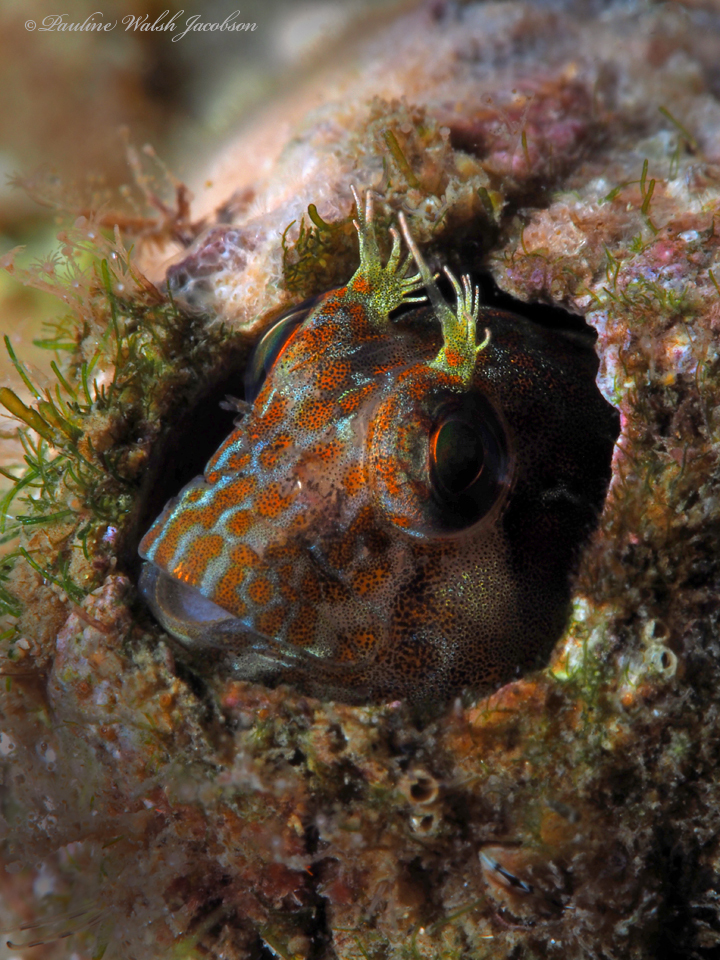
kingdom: Animalia
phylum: Chordata
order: Perciformes
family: Blenniidae
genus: Hypleurochilus
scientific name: Hypleurochilus pseudoaequipinnis
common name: Oyster blenny
